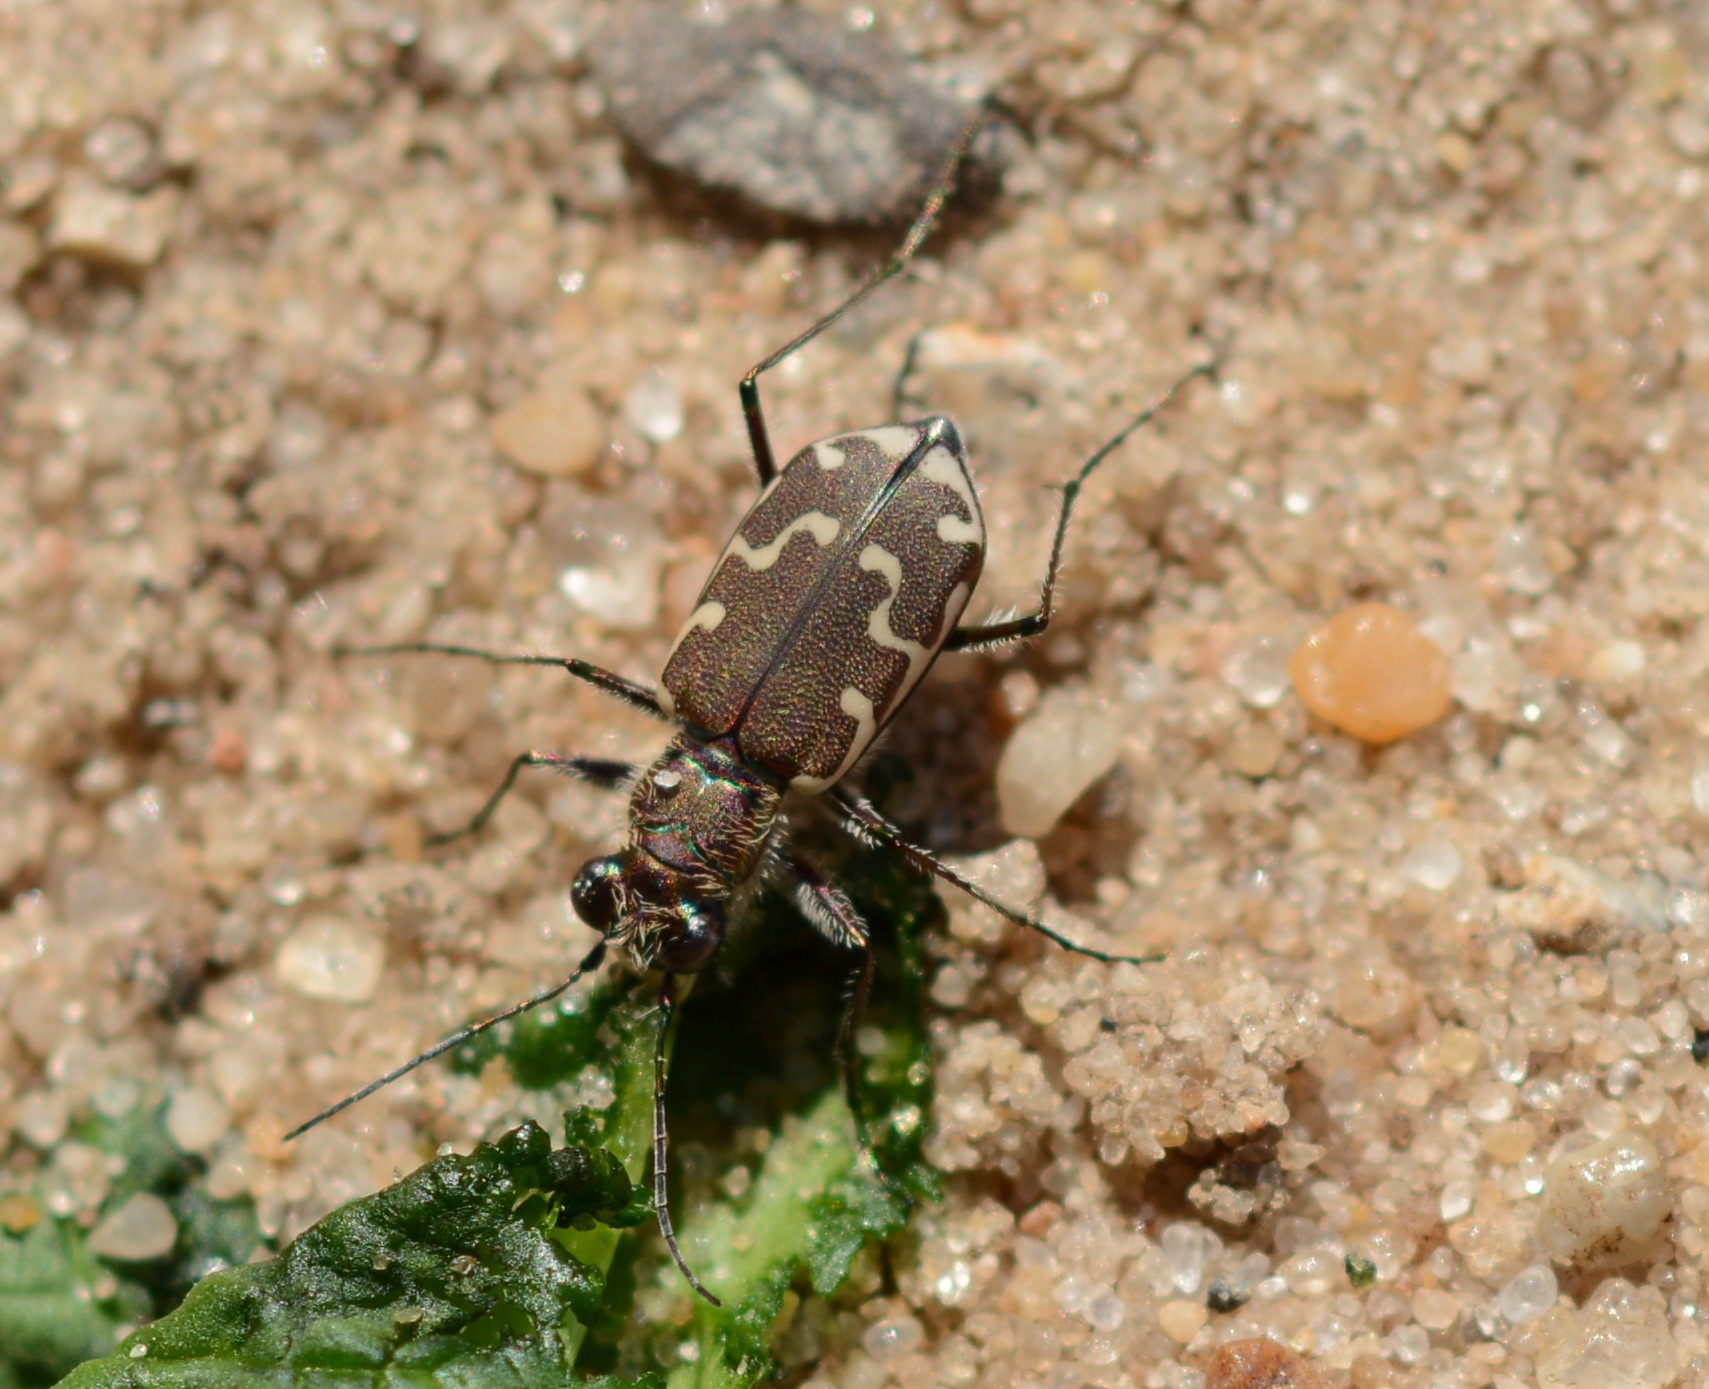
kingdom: Animalia
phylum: Arthropoda
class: Insecta
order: Coleoptera
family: Carabidae
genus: Cicindela
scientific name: Cicindela repanda
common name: Bronzed tiger beetle
